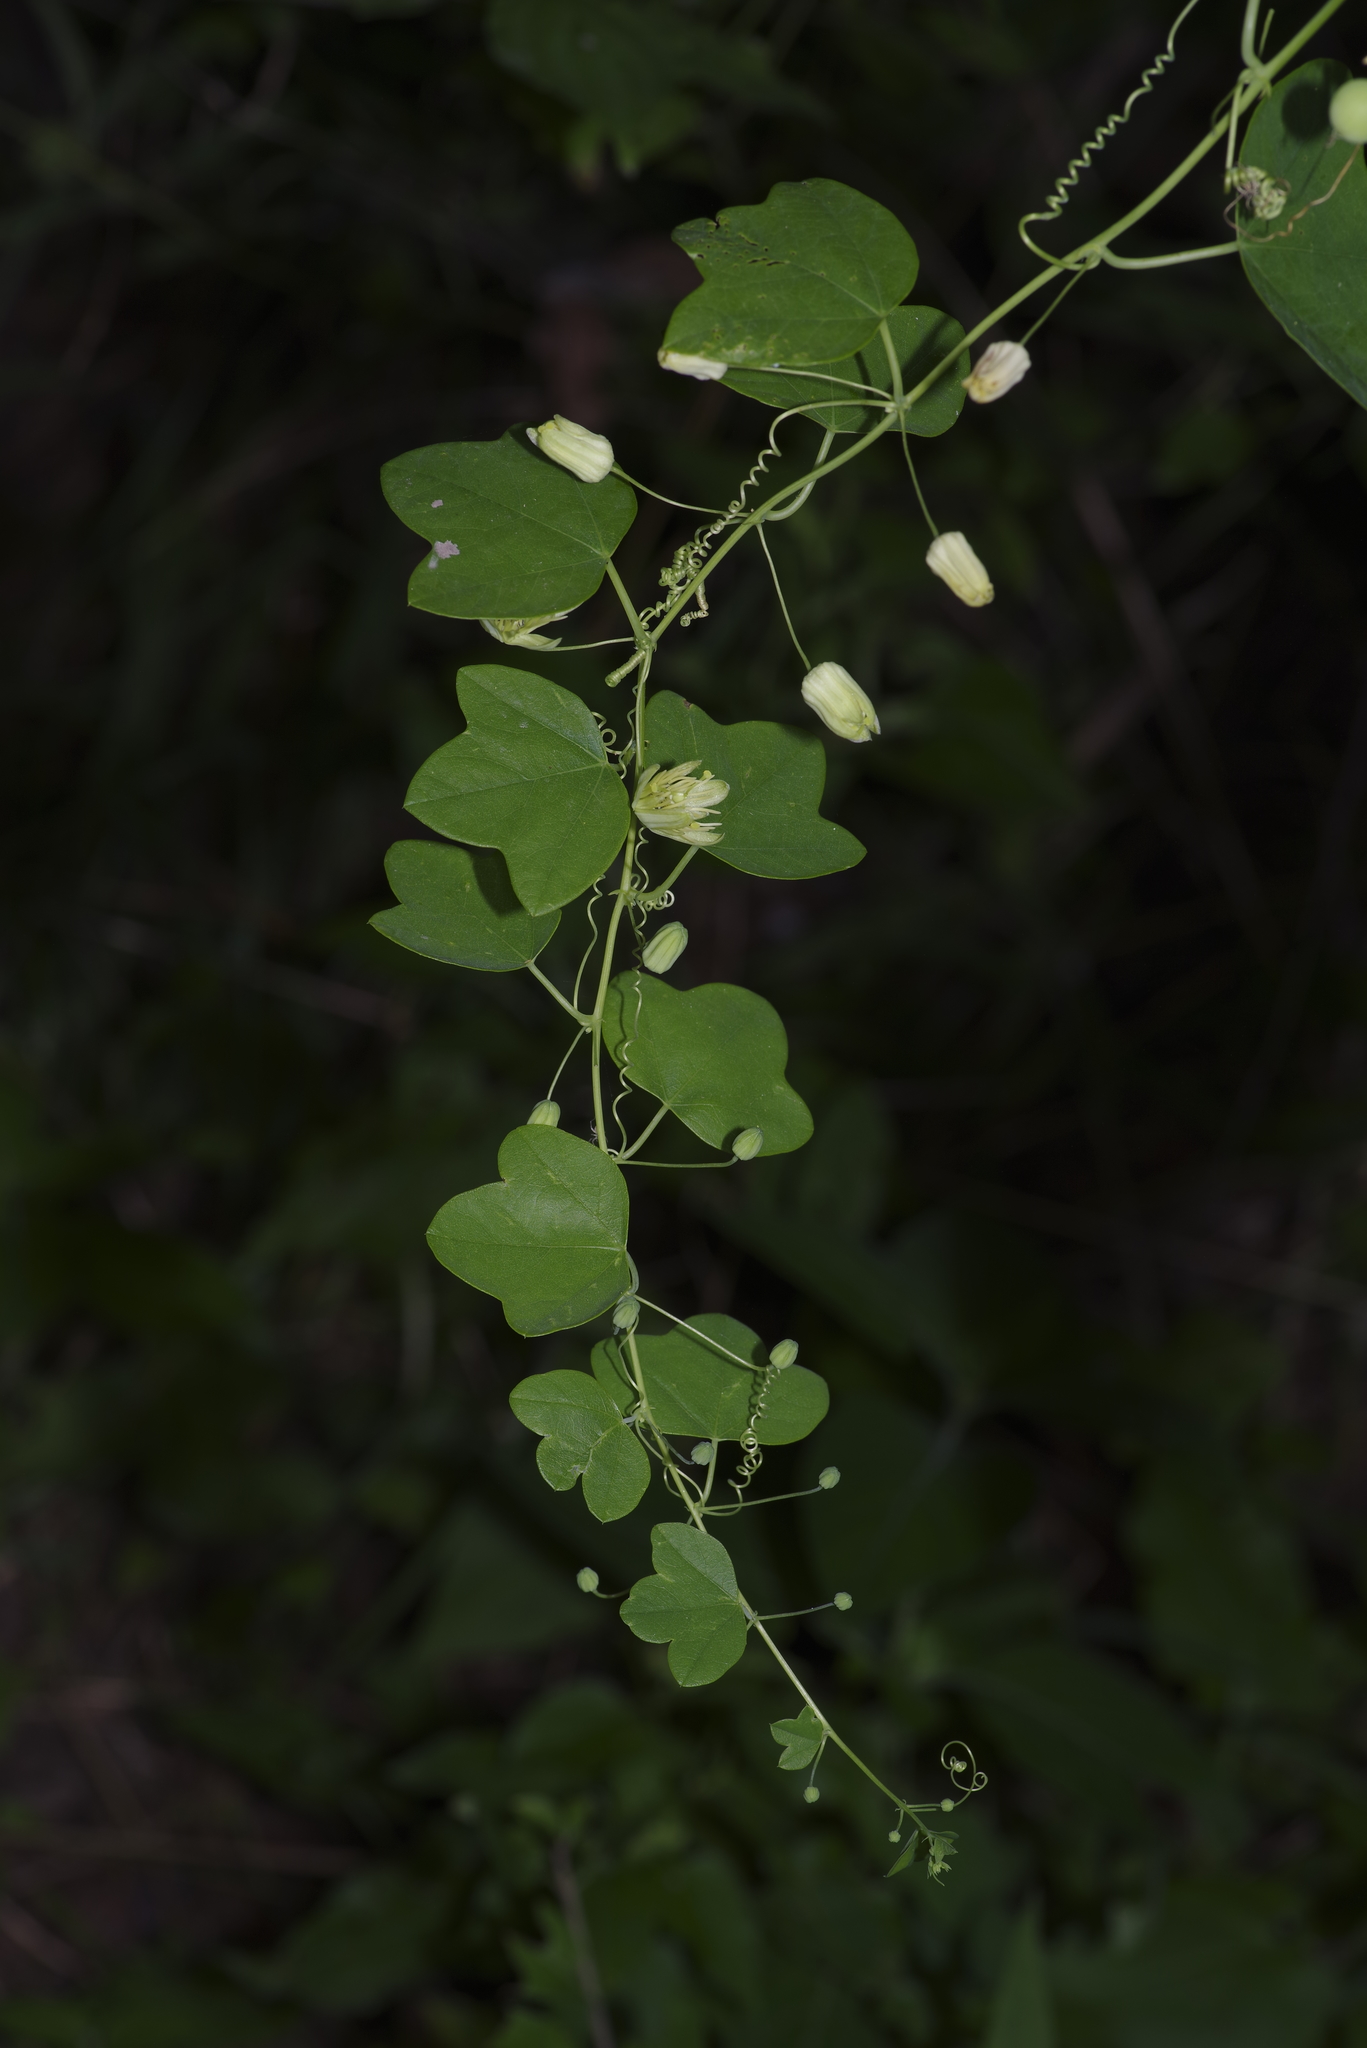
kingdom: Plantae
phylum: Tracheophyta
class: Magnoliopsida
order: Malpighiales
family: Passifloraceae
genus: Passiflora
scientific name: Passiflora lutea
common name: Yellow passionflower
